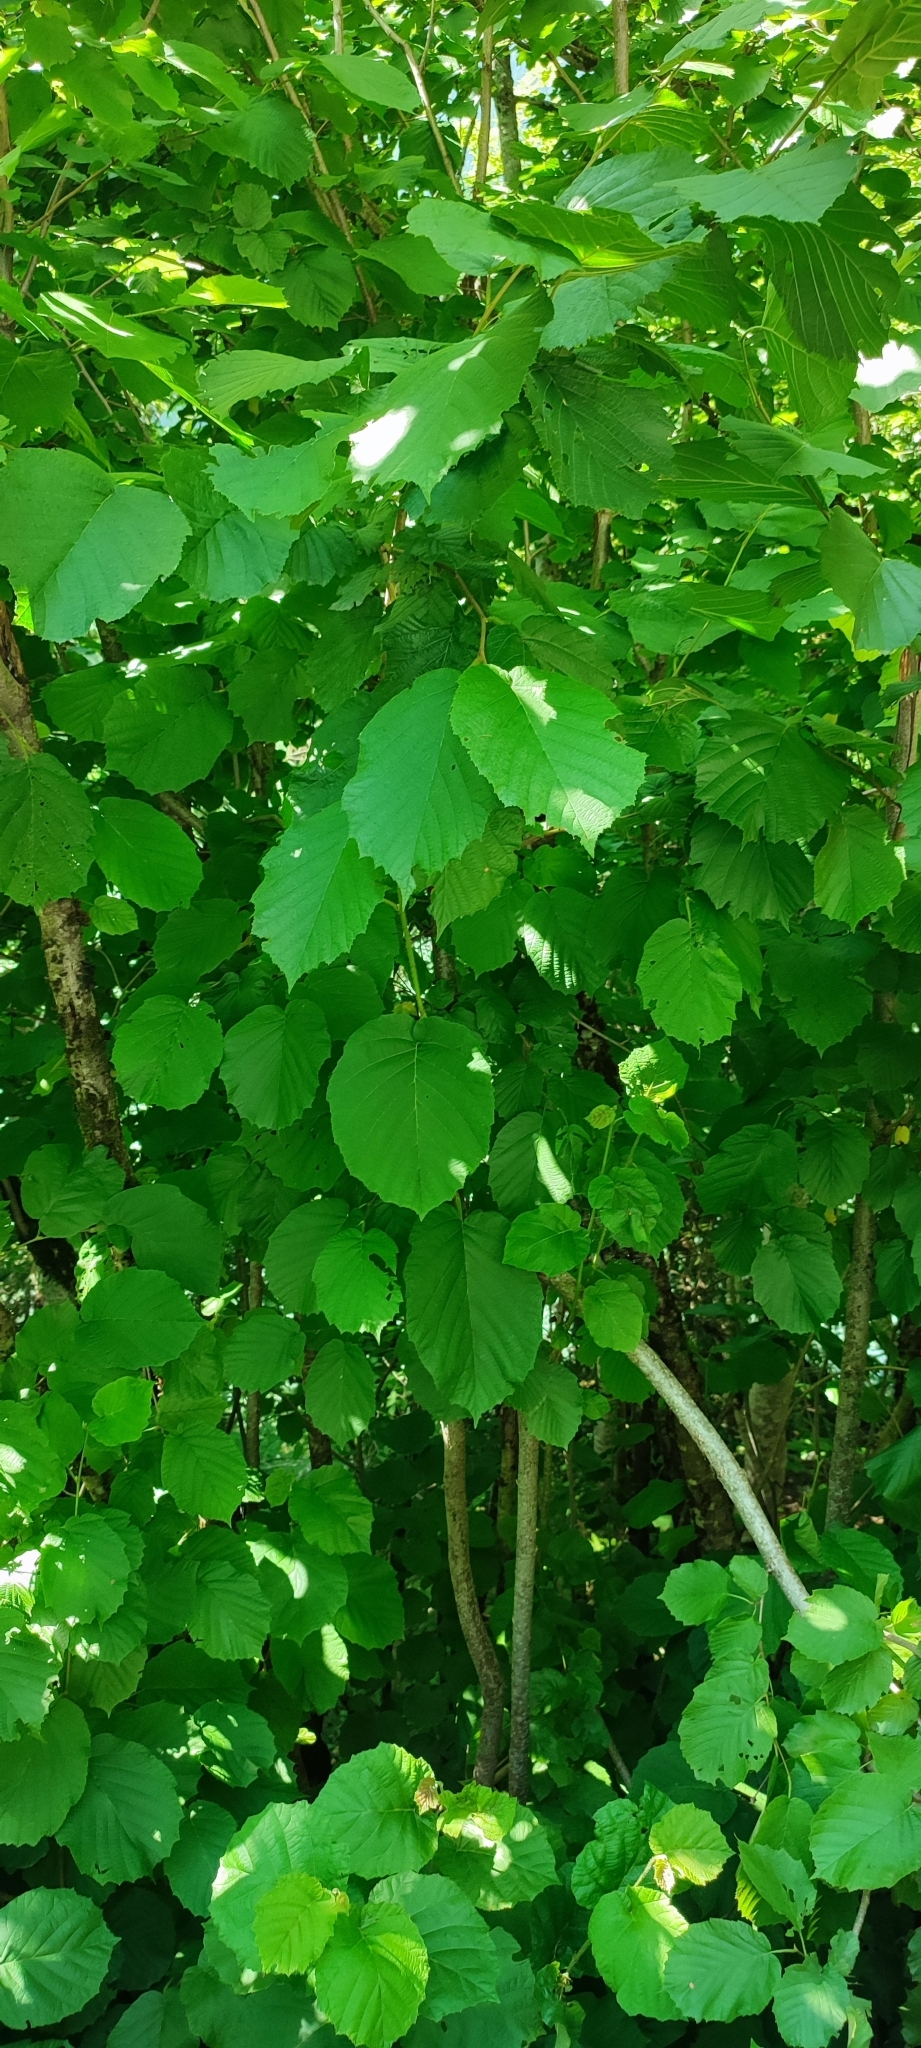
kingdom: Plantae
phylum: Tracheophyta
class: Magnoliopsida
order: Fagales
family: Betulaceae
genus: Corylus
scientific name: Corylus avellana
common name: European hazel
